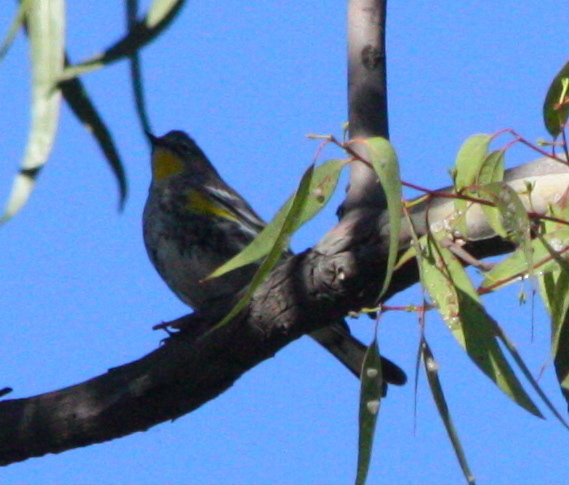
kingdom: Animalia
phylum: Chordata
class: Aves
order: Passeriformes
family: Parulidae
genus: Setophaga
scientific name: Setophaga coronata
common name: Myrtle warbler
